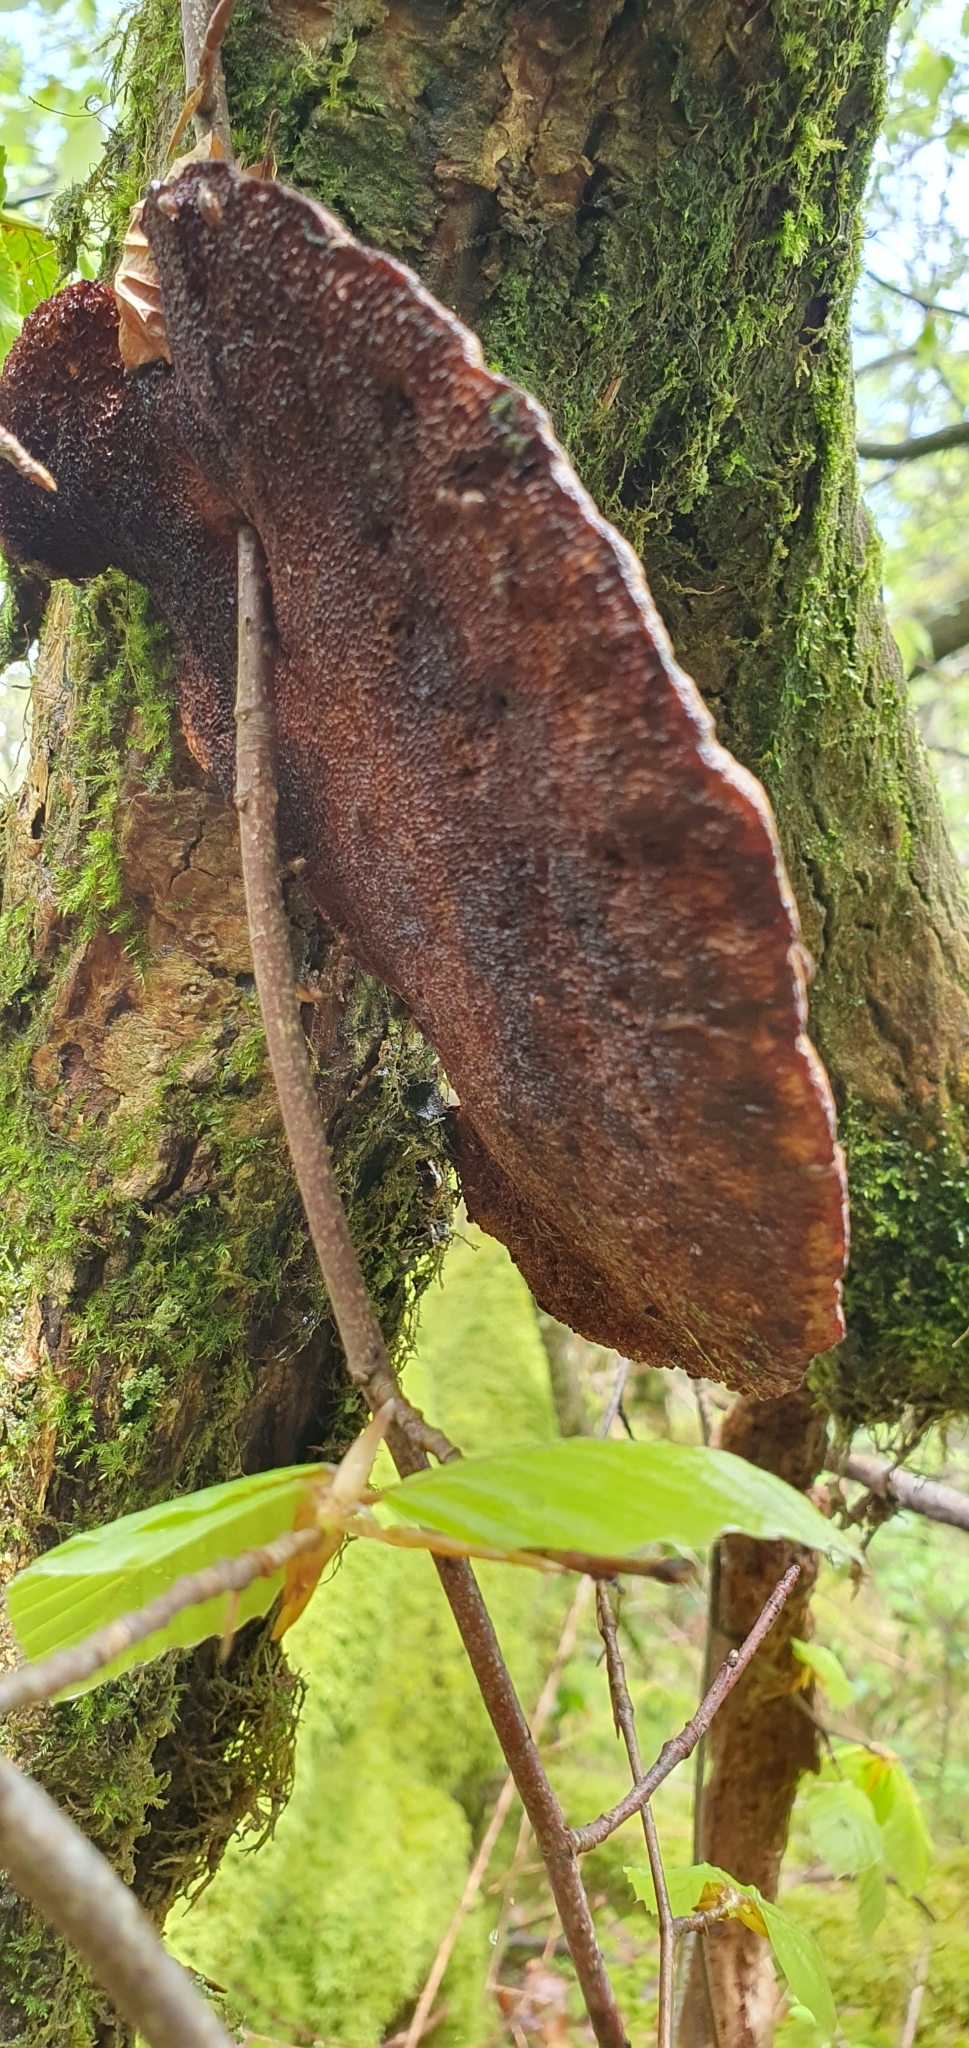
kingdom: Fungi
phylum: Basidiomycota
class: Agaricomycetes
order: Polyporales
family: Polyporaceae
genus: Daedaleopsis
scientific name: Daedaleopsis confragosa
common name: Blushing bracket
